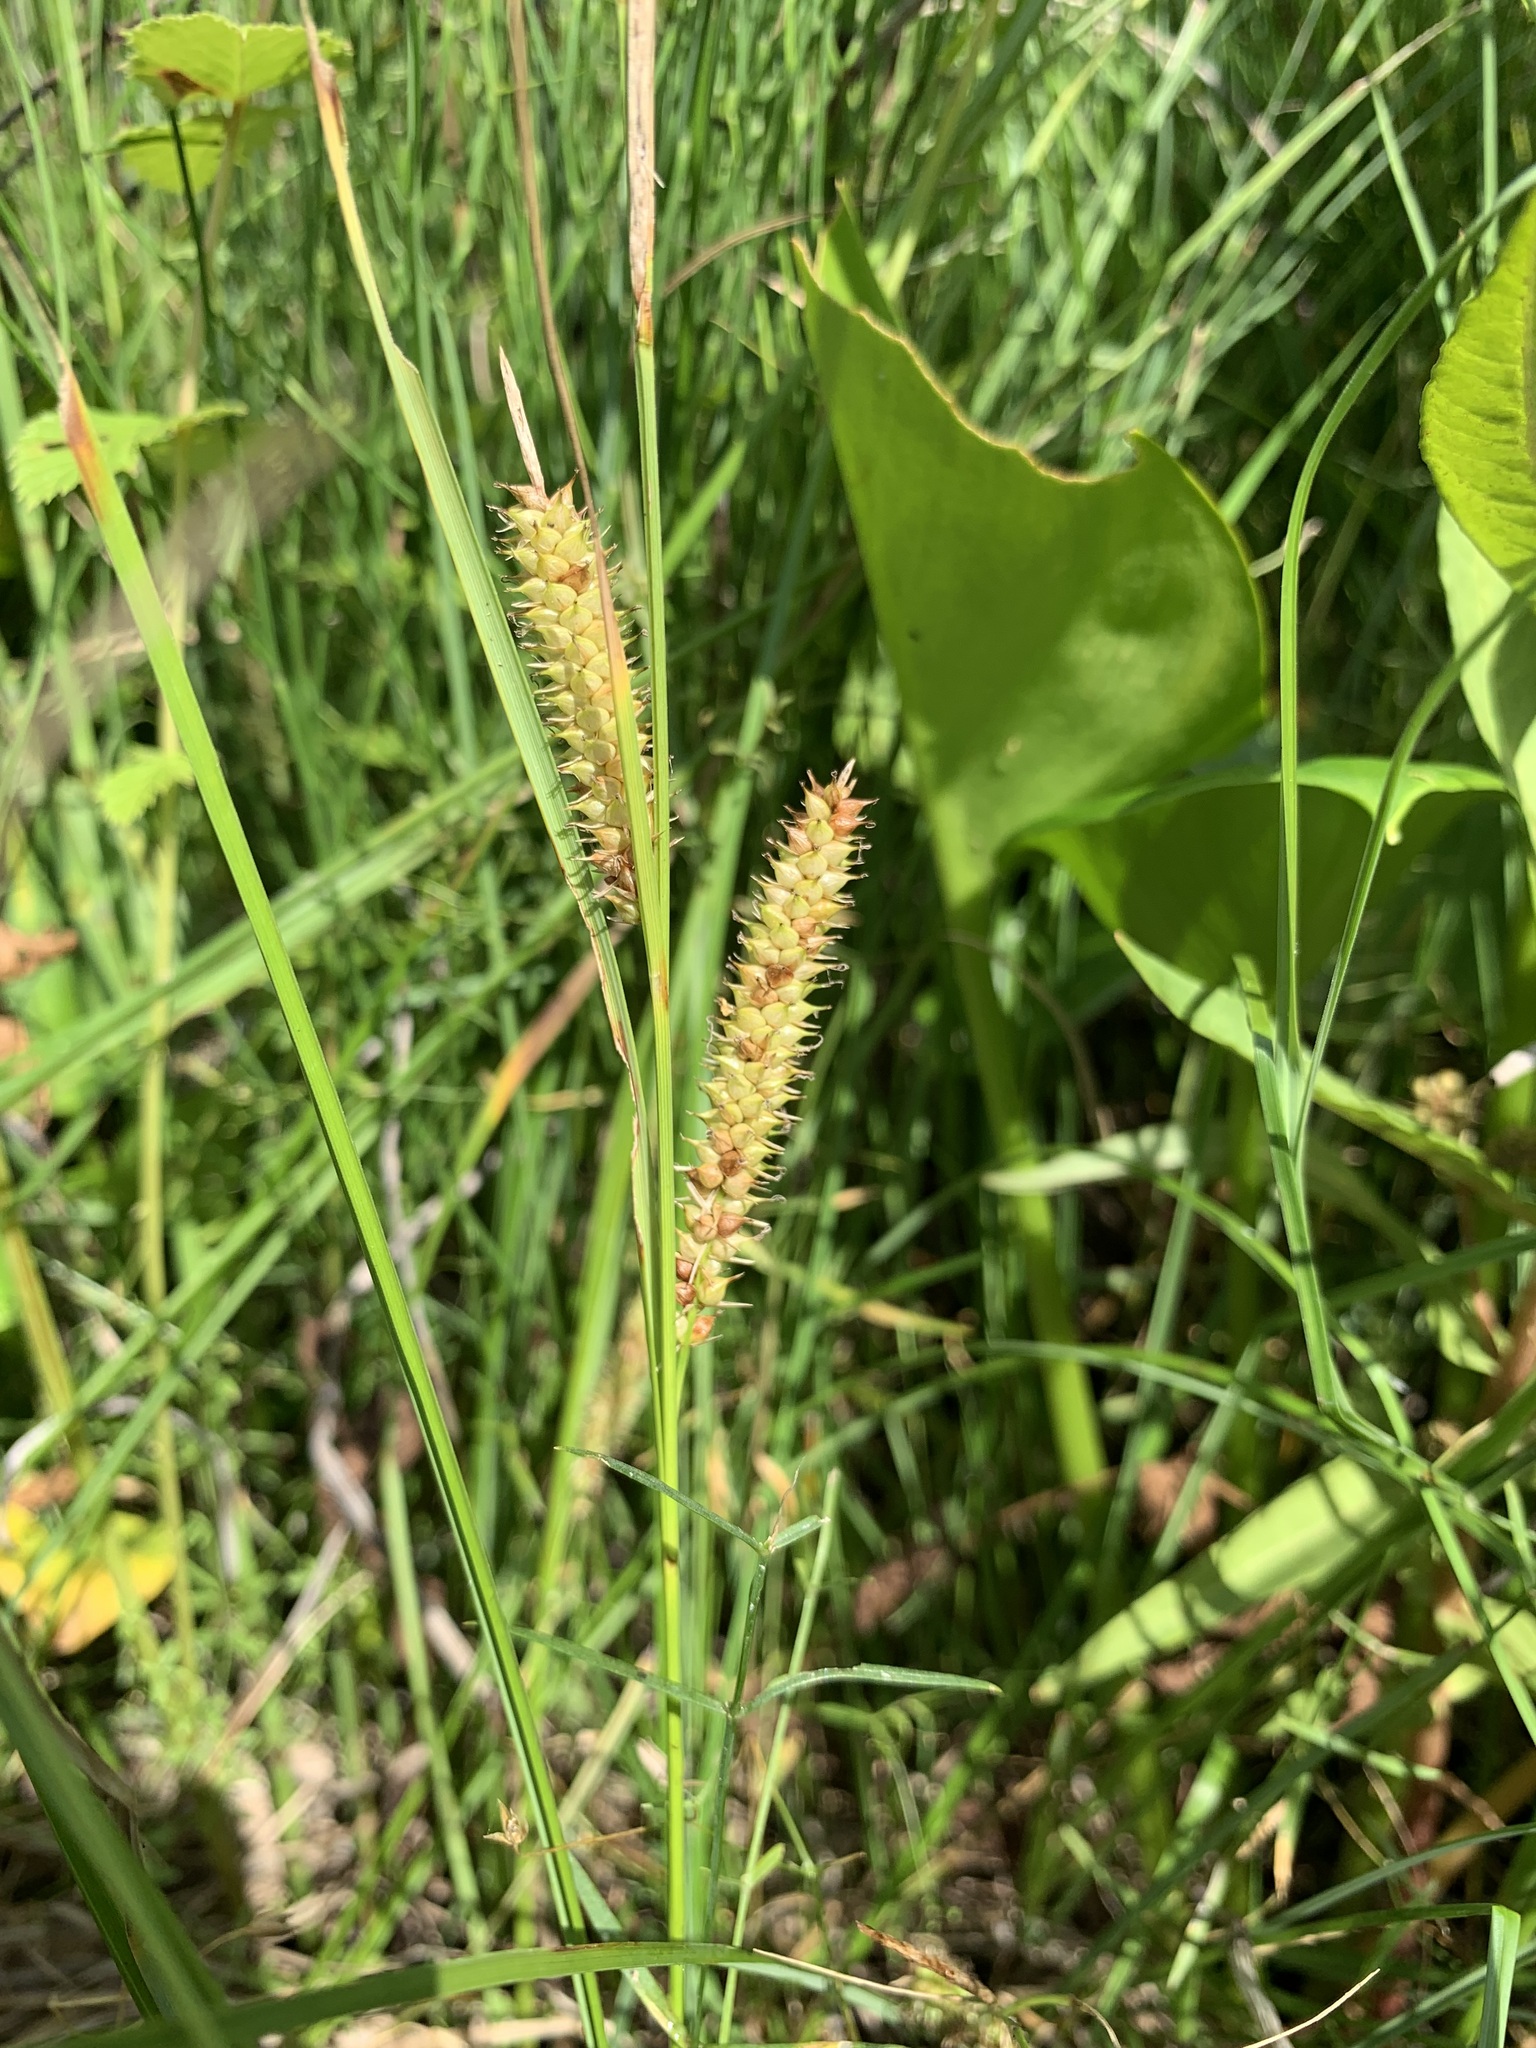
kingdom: Plantae
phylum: Tracheophyta
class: Liliopsida
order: Poales
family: Cyperaceae
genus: Carex
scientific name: Carex rostrata
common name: Bottle sedge
